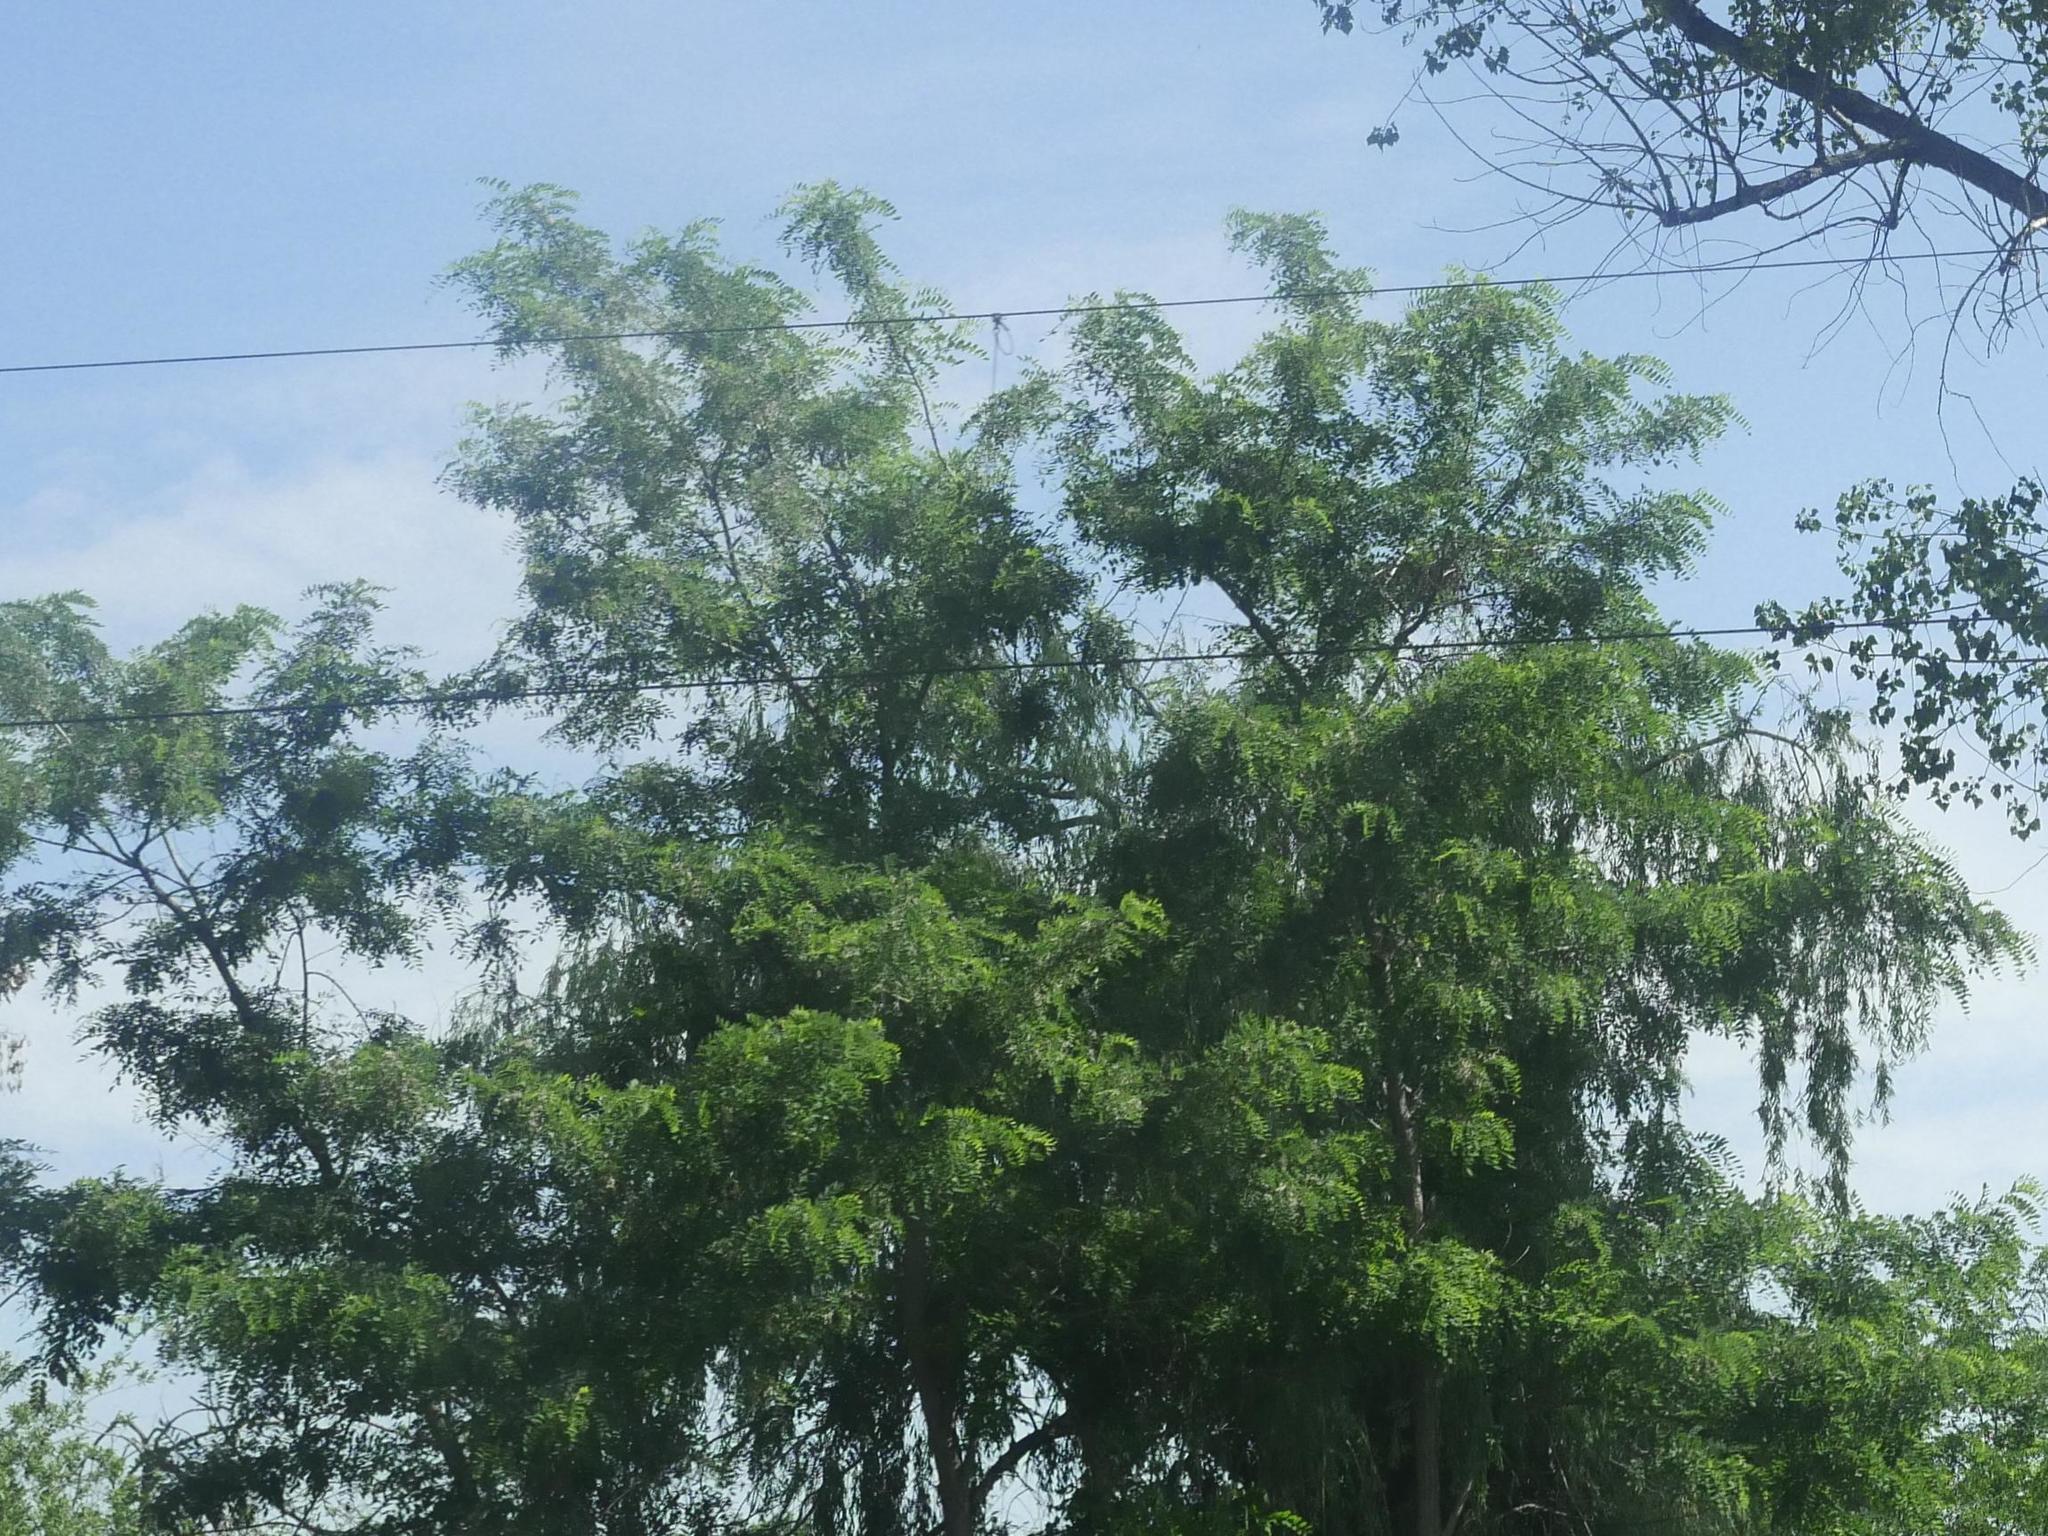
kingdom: Plantae
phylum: Tracheophyta
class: Magnoliopsida
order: Fabales
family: Fabaceae
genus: Robinia
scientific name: Robinia pseudoacacia
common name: Black locust
